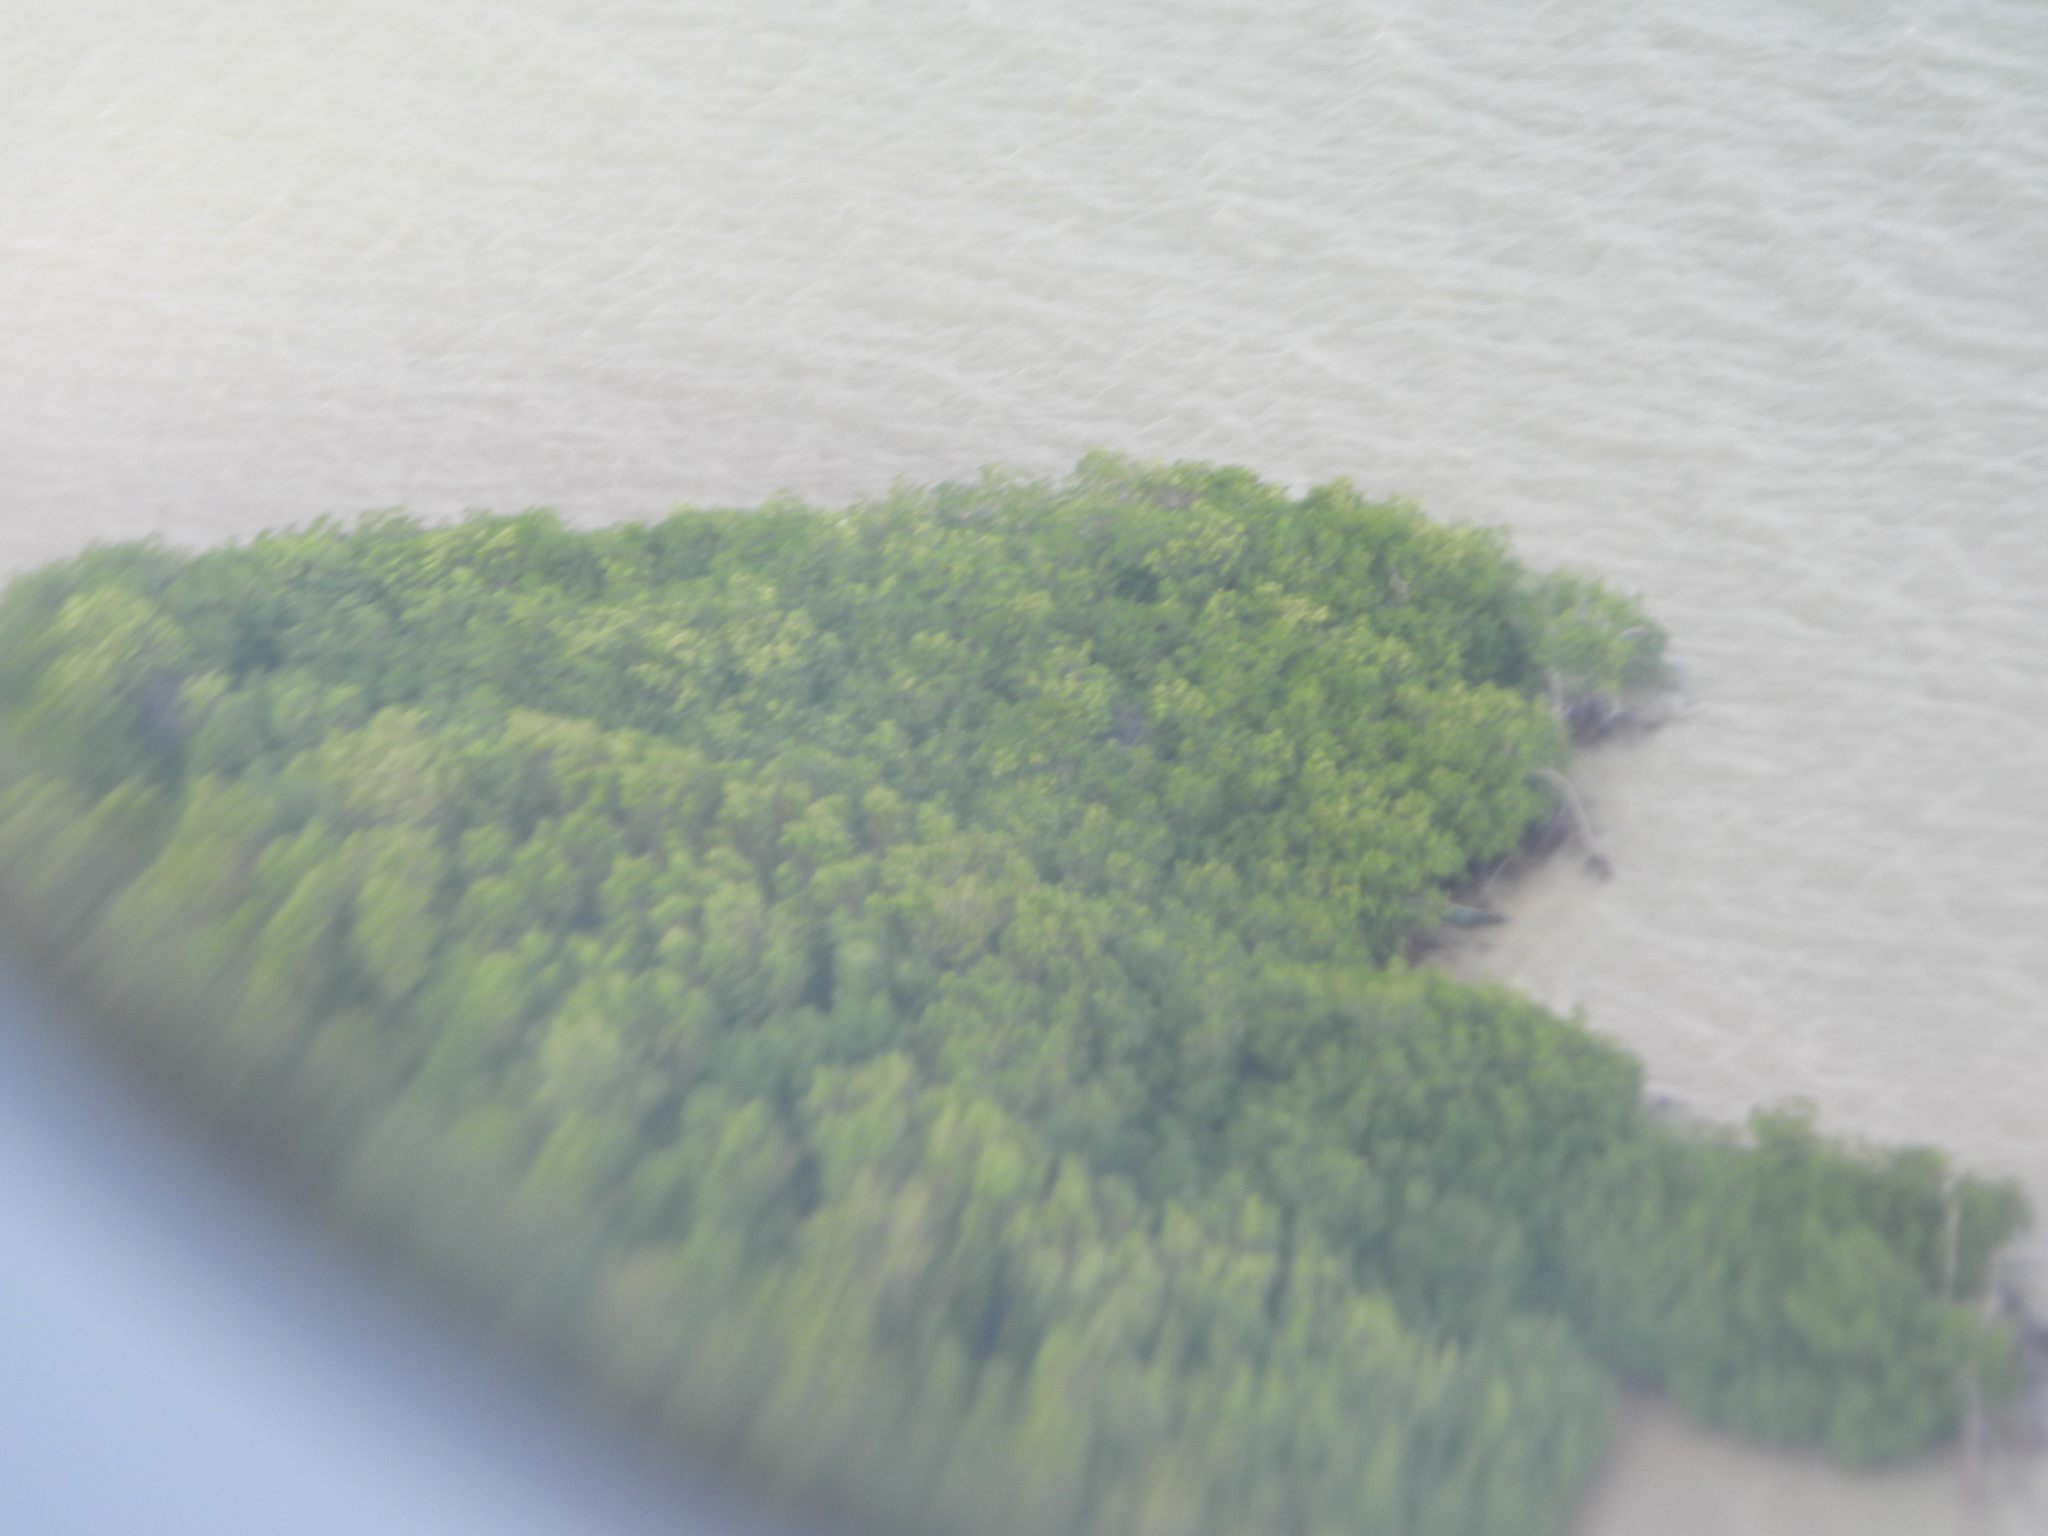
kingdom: Plantae
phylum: Tracheophyta
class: Magnoliopsida
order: Malpighiales
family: Rhizophoraceae
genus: Rhizophora
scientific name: Rhizophora mangle
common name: Red mangrove
